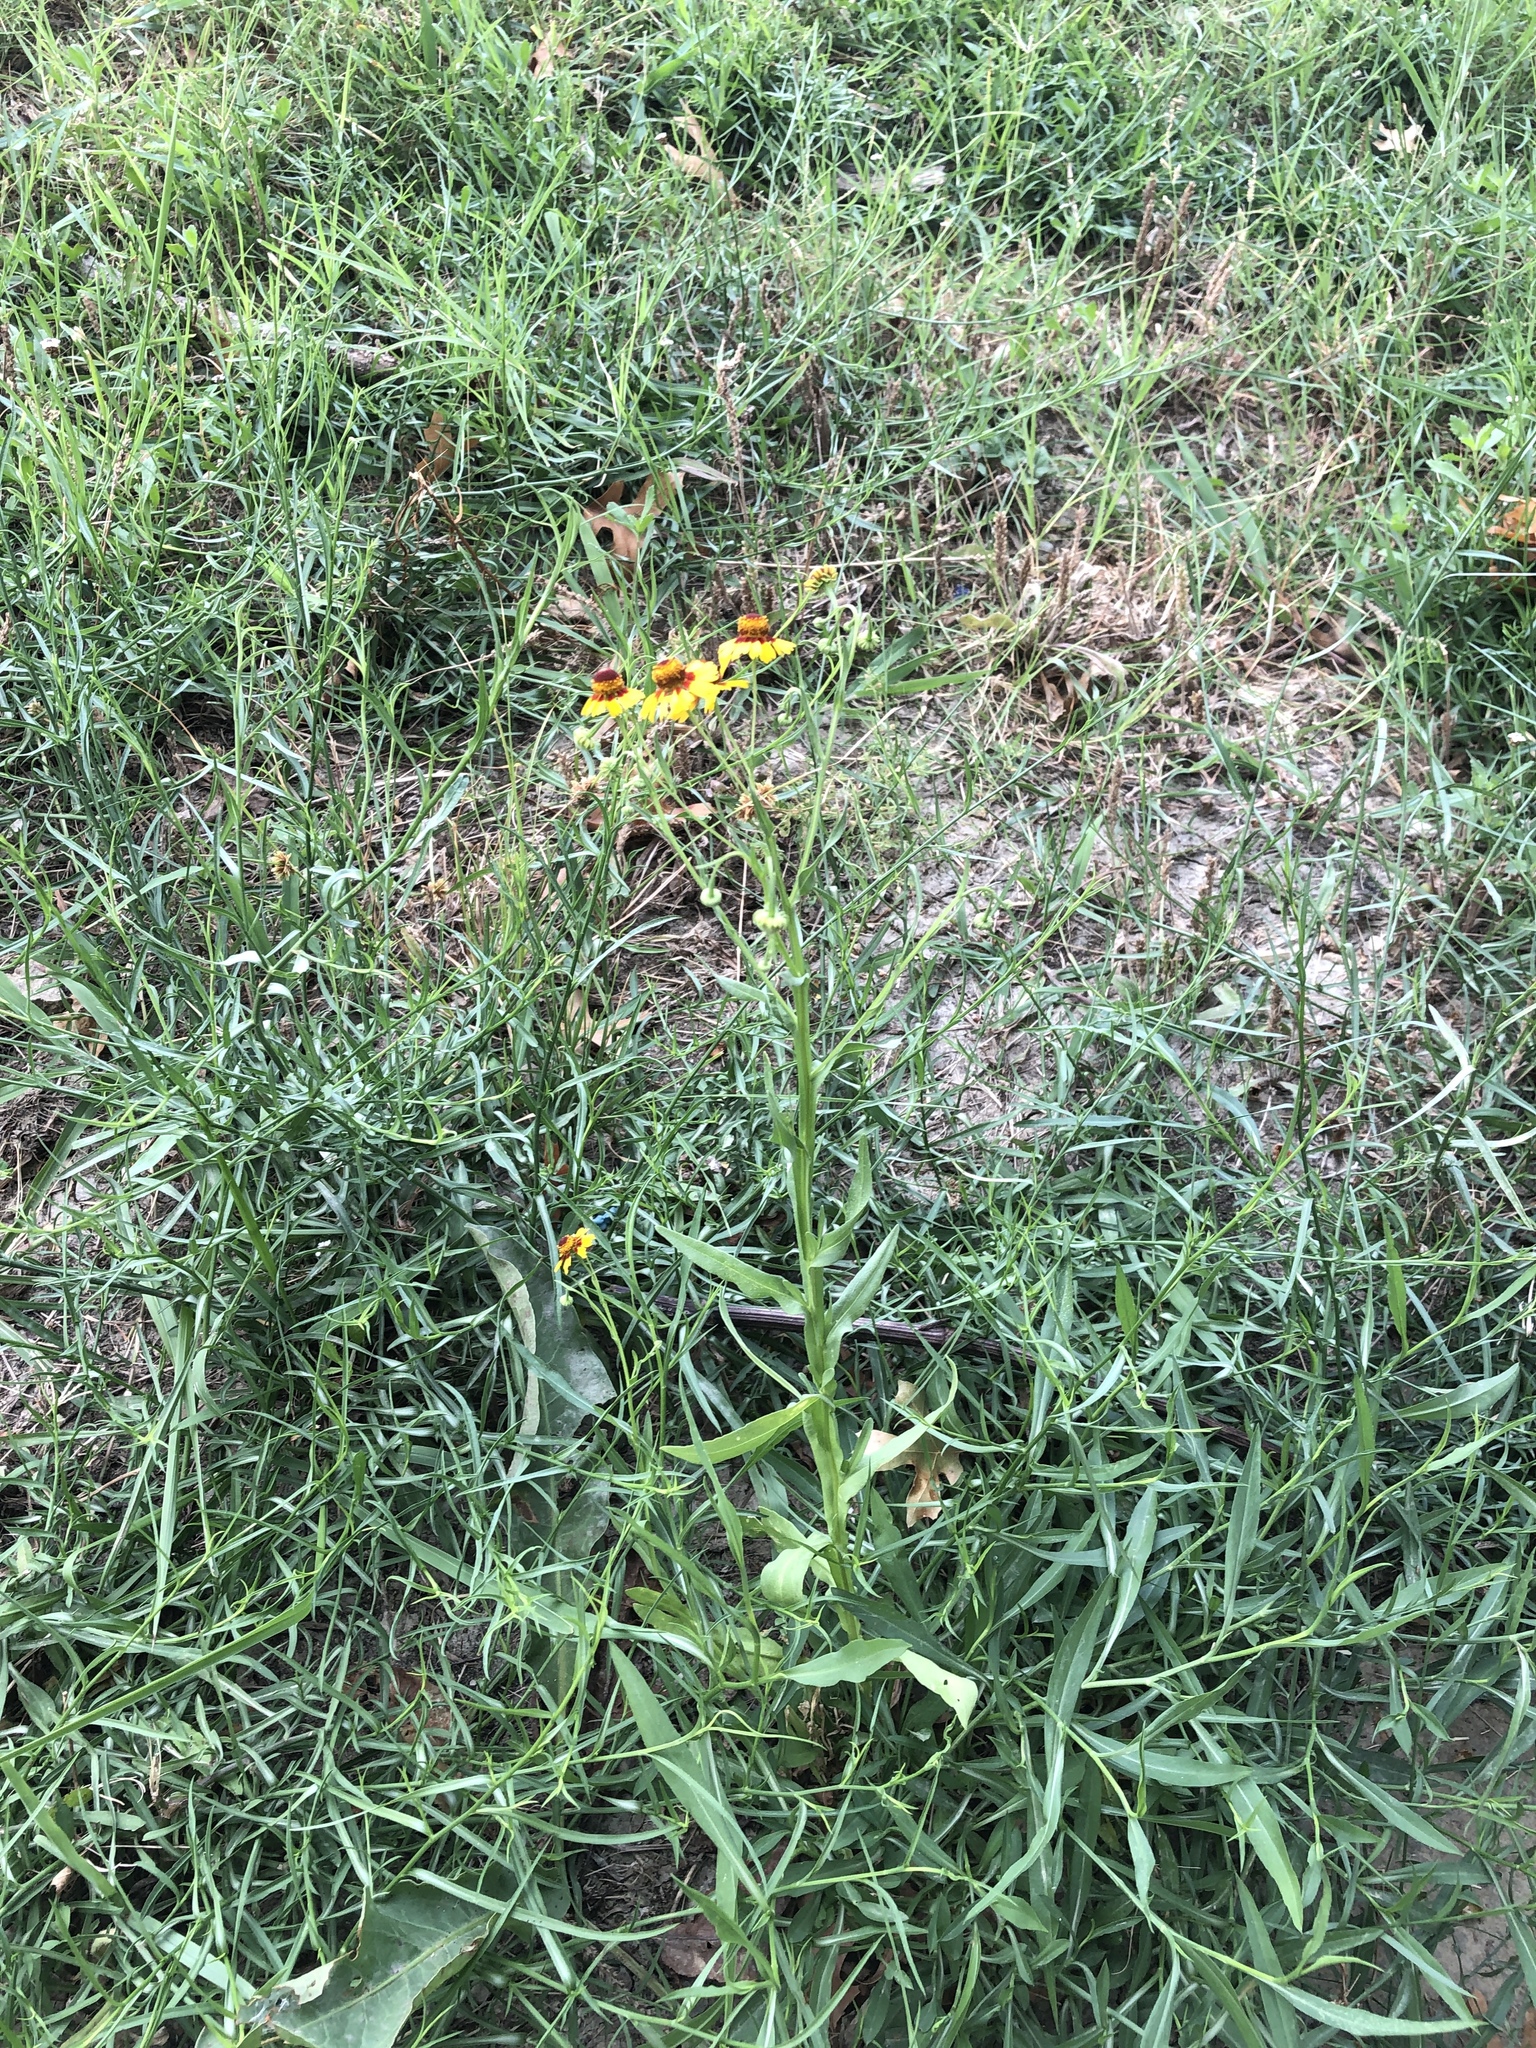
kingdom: Plantae
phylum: Tracheophyta
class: Magnoliopsida
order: Asterales
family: Asteraceae
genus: Helenium
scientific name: Helenium elegans
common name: Pretty sneezeweed
